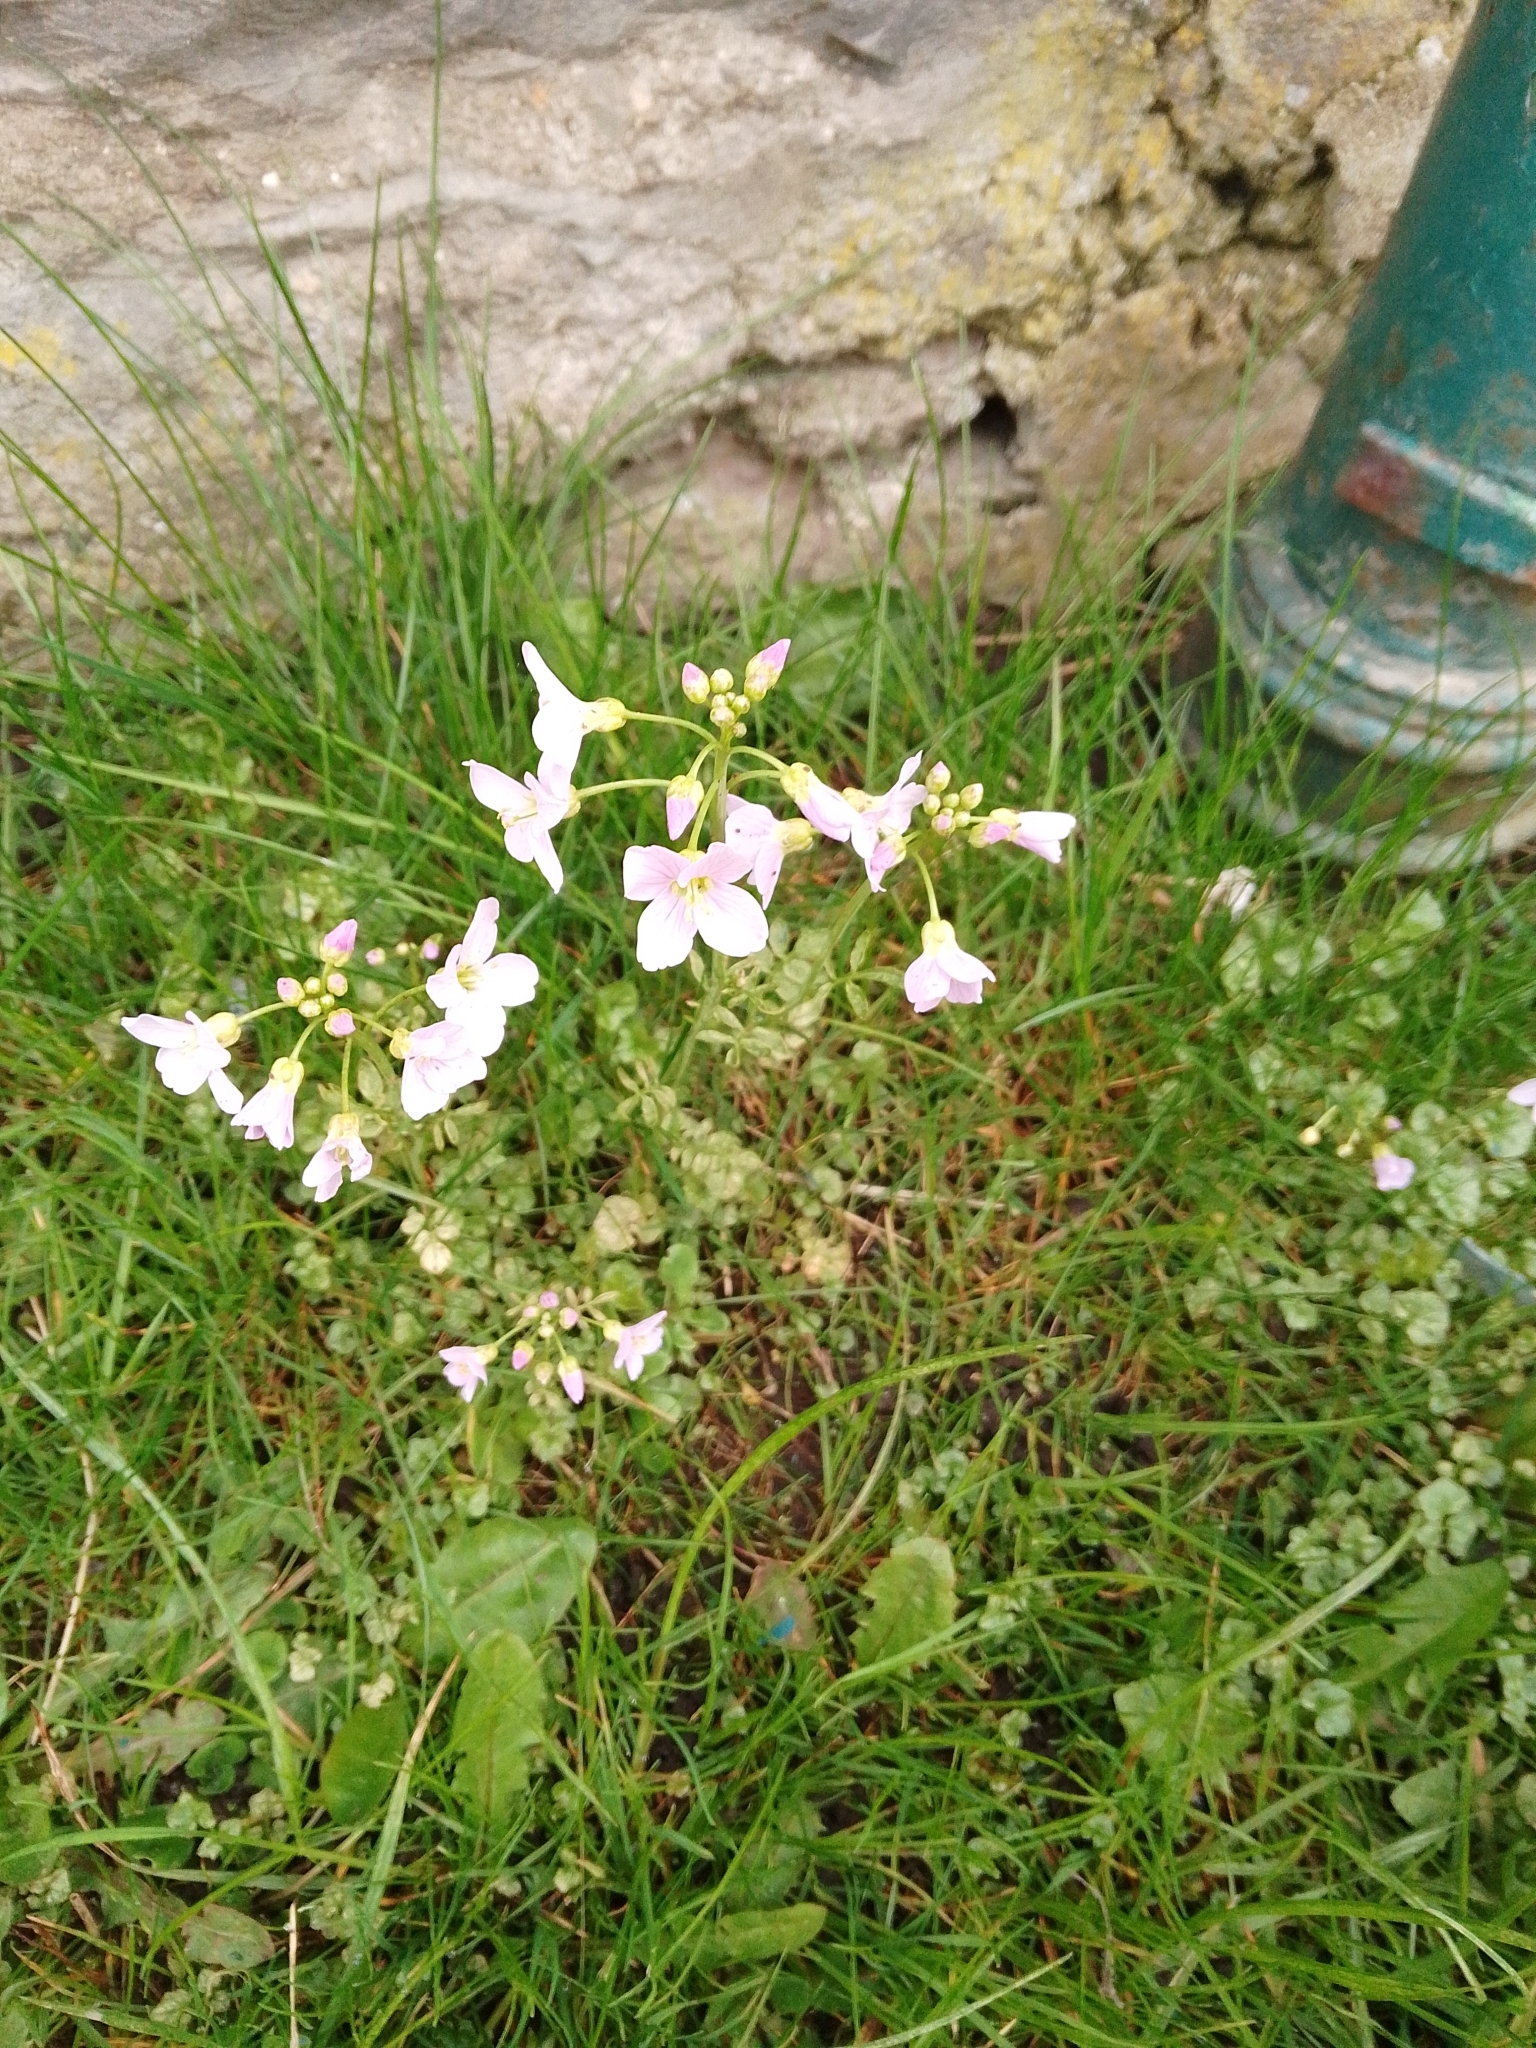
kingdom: Plantae
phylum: Tracheophyta
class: Magnoliopsida
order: Brassicales
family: Brassicaceae
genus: Cardamine
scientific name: Cardamine pratensis
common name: Cuckoo flower
